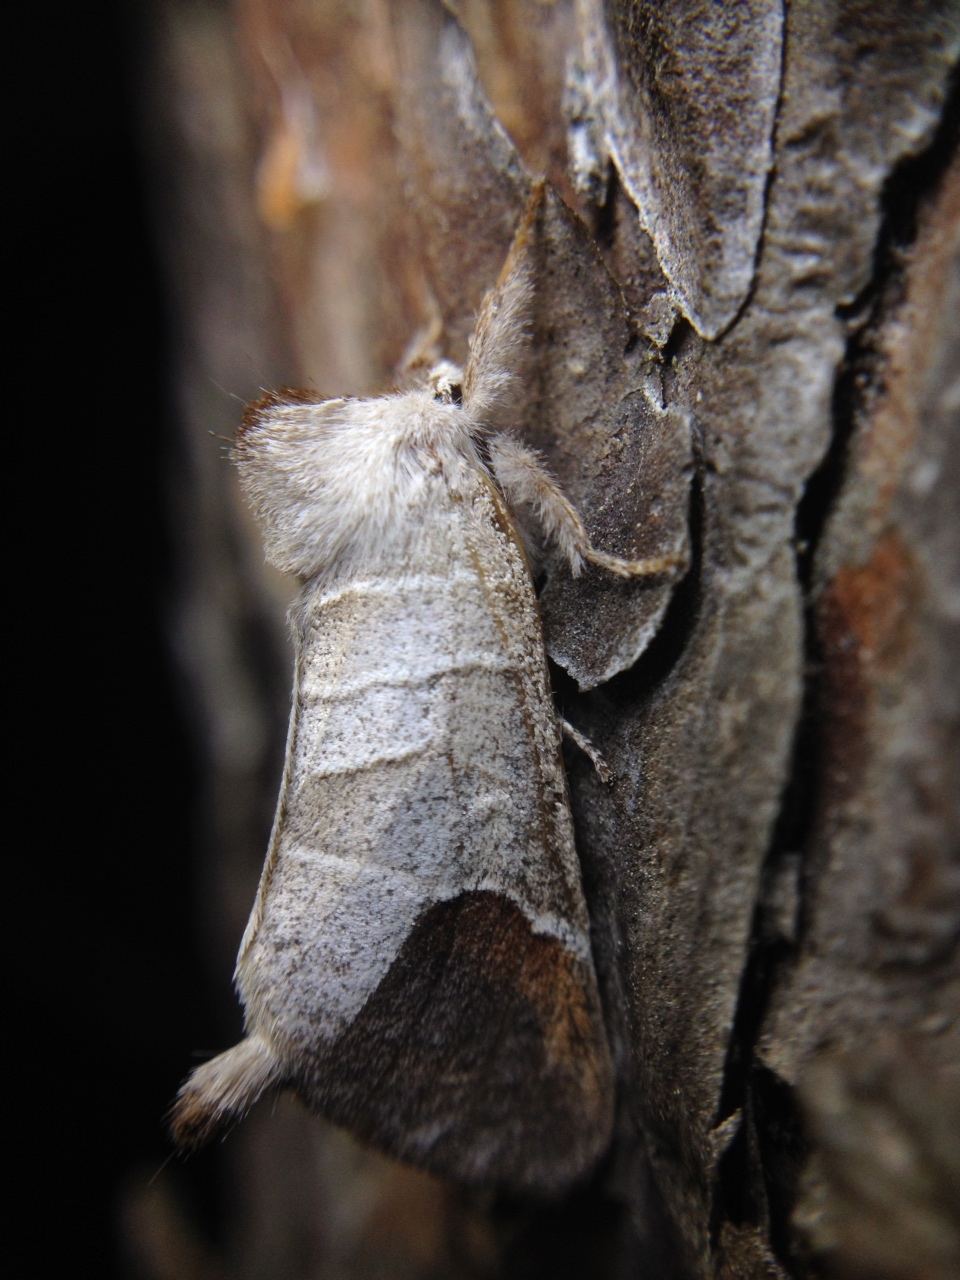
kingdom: Animalia
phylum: Arthropoda
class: Insecta
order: Lepidoptera
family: Notodontidae
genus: Clostera
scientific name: Clostera curtula
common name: Chocolate-tip
